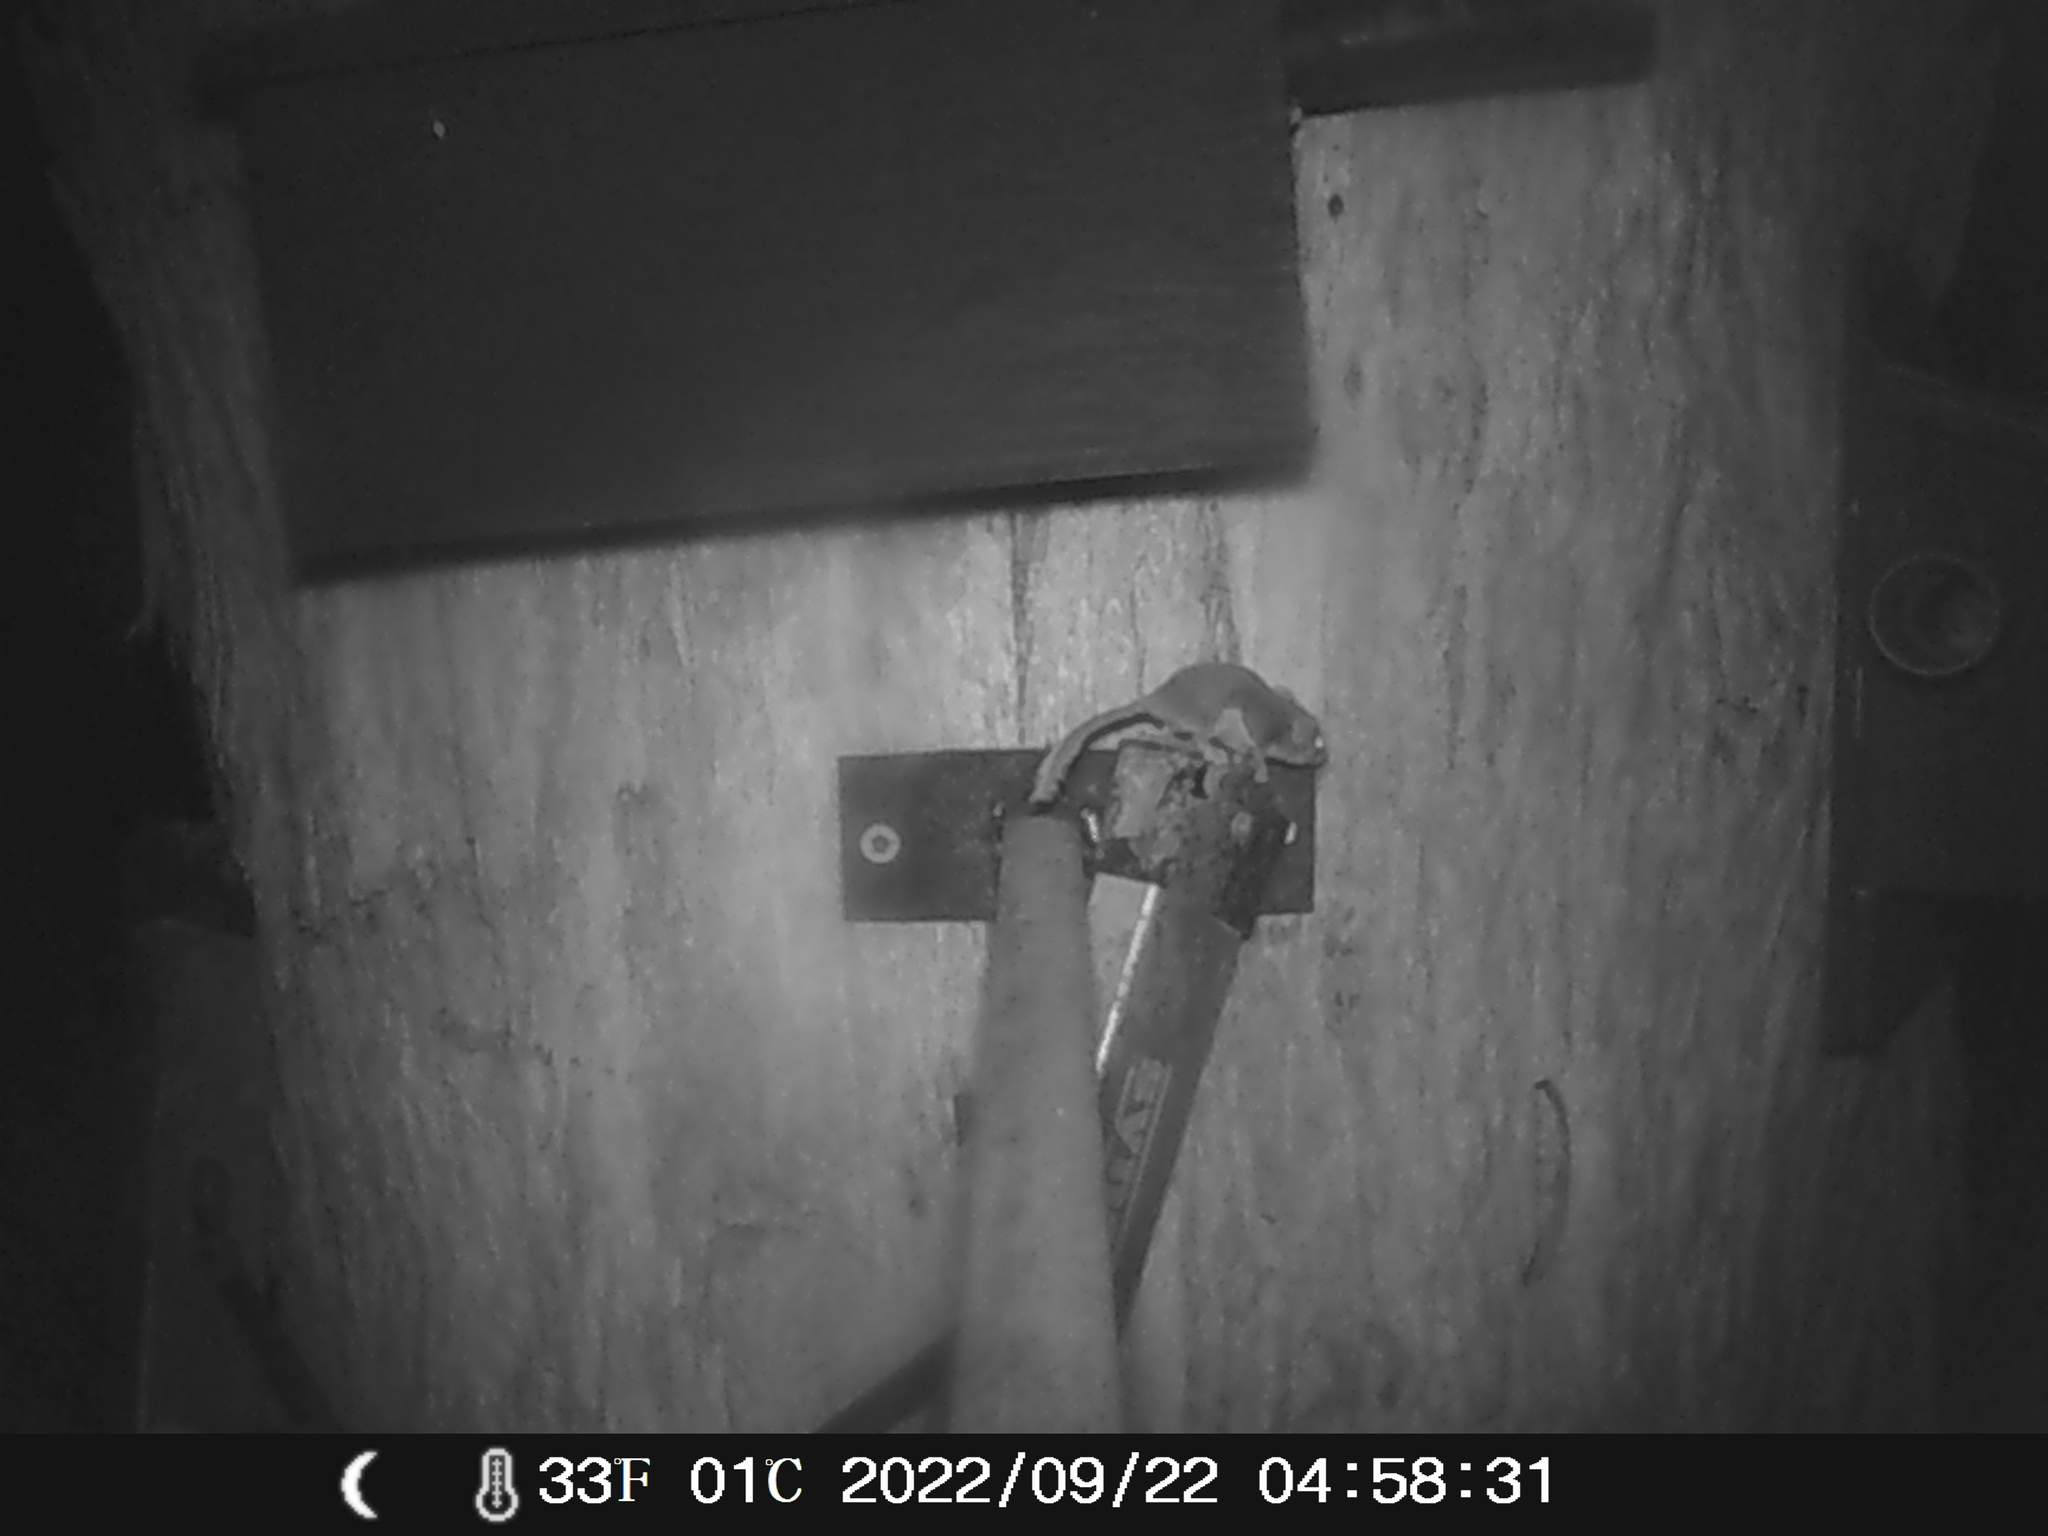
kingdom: Animalia
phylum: Chordata
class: Mammalia
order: Diprotodontia
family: Acrobatidae
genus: Acrobates
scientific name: Acrobates pygmaeus
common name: Feathertail glider
